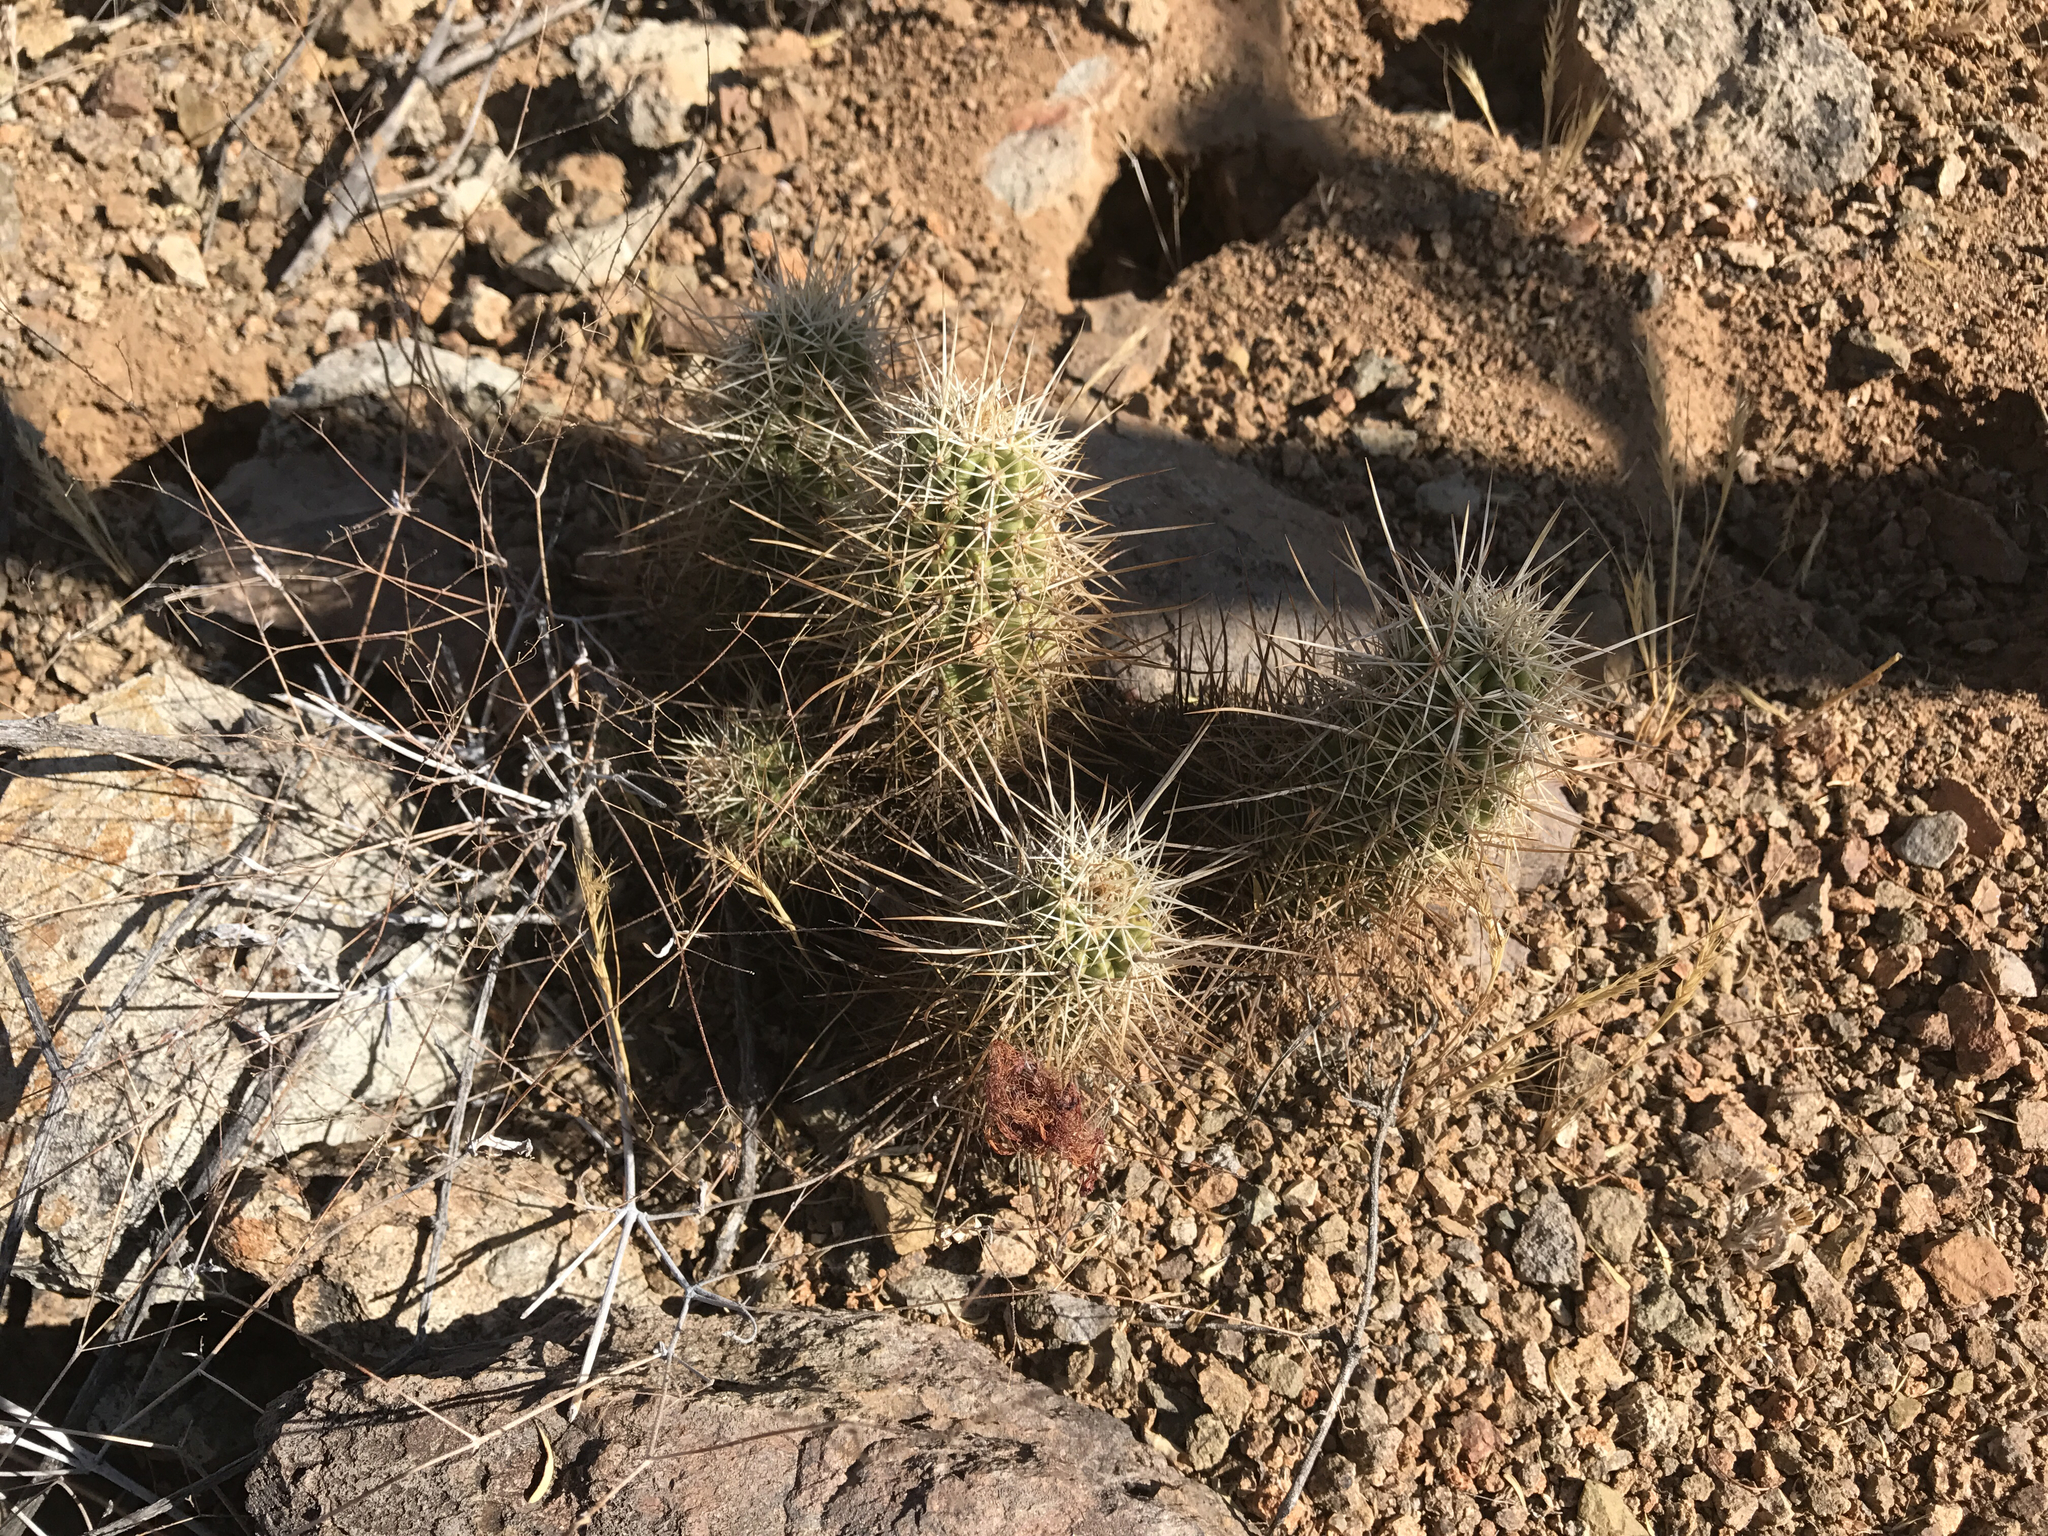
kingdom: Plantae
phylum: Tracheophyta
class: Magnoliopsida
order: Caryophyllales
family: Cactaceae
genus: Echinocereus
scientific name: Echinocereus fasciculatus
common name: Bundle hedgehog
